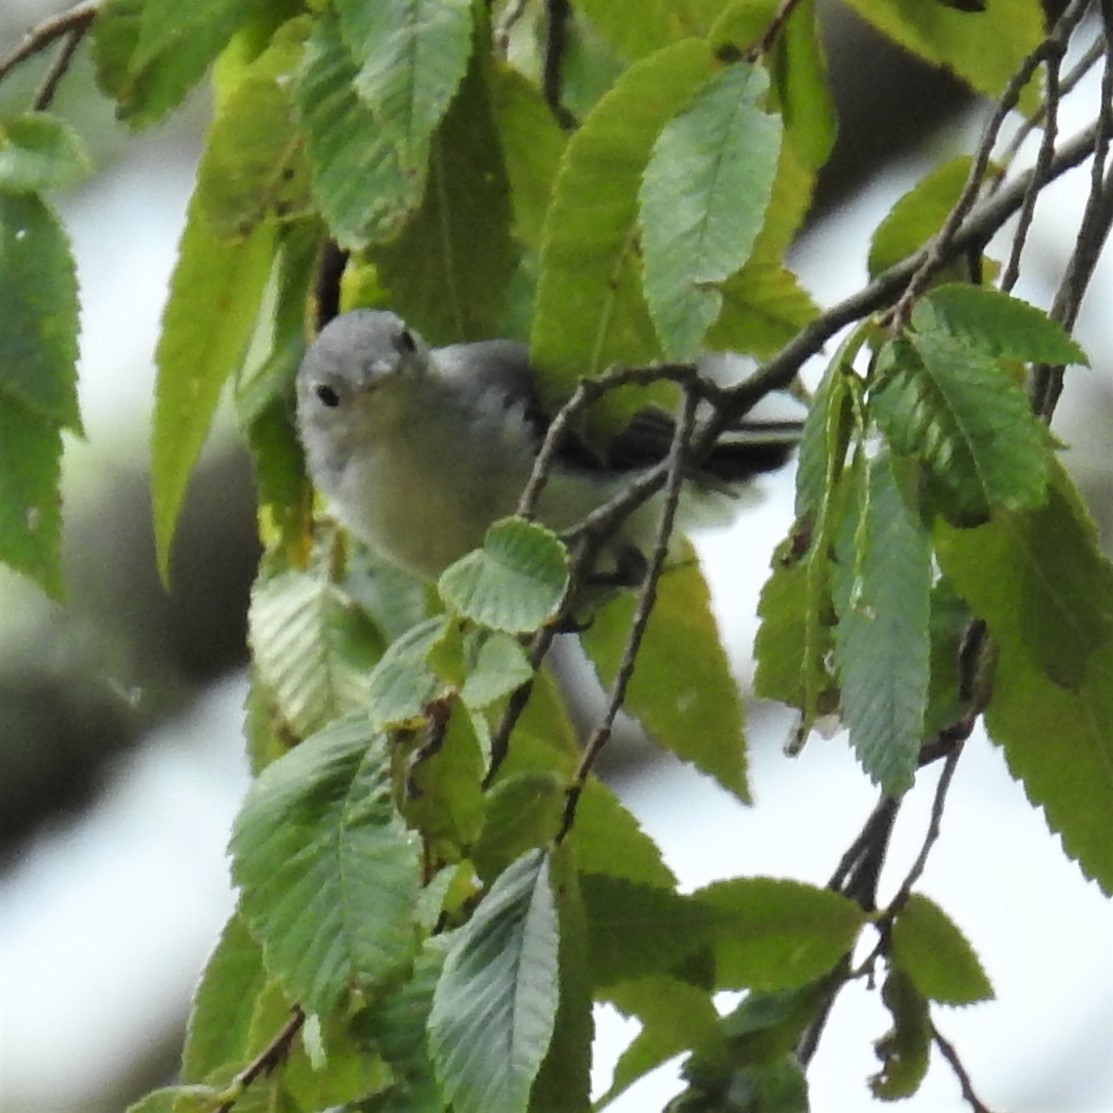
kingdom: Animalia
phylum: Chordata
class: Aves
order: Passeriformes
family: Polioptilidae
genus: Polioptila
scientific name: Polioptila caerulea
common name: Blue-gray gnatcatcher
